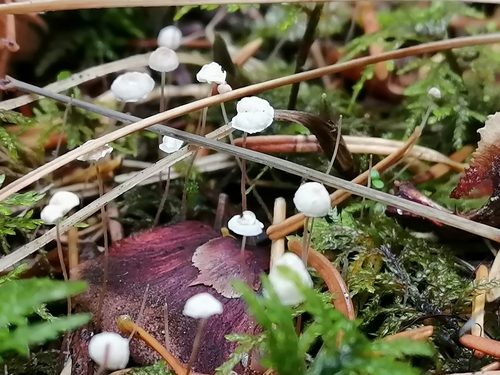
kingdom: Fungi
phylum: Basidiomycota
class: Agaricomycetes
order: Agaricales
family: Marasmiaceae
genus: Marasmius
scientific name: Marasmius epiphyllus
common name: Leaf parachute
